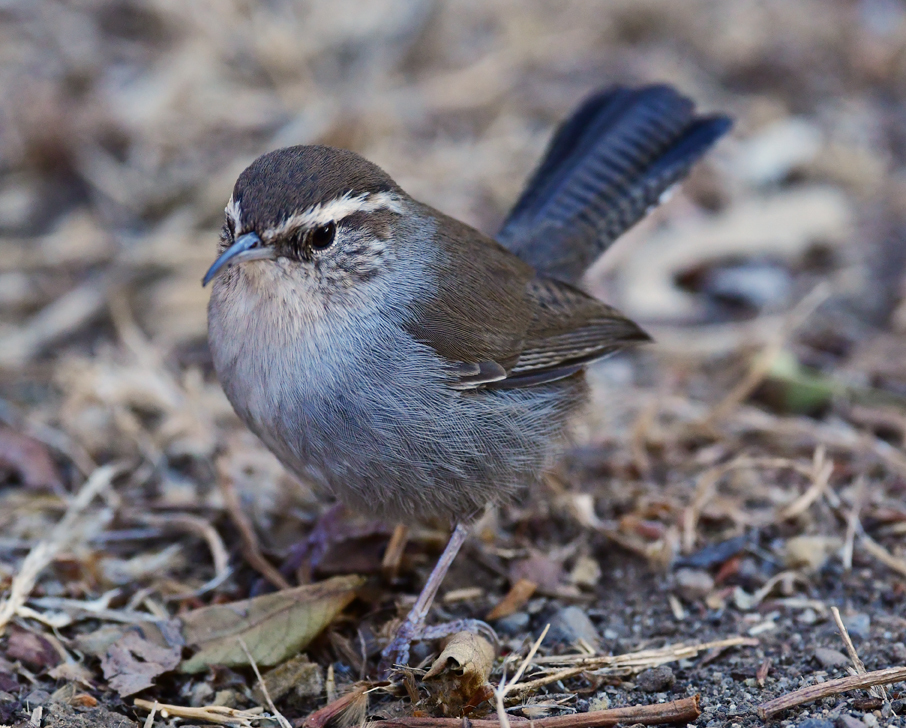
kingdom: Animalia
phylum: Chordata
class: Aves
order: Passeriformes
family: Troglodytidae
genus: Thryomanes
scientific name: Thryomanes bewickii
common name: Bewick's wren
